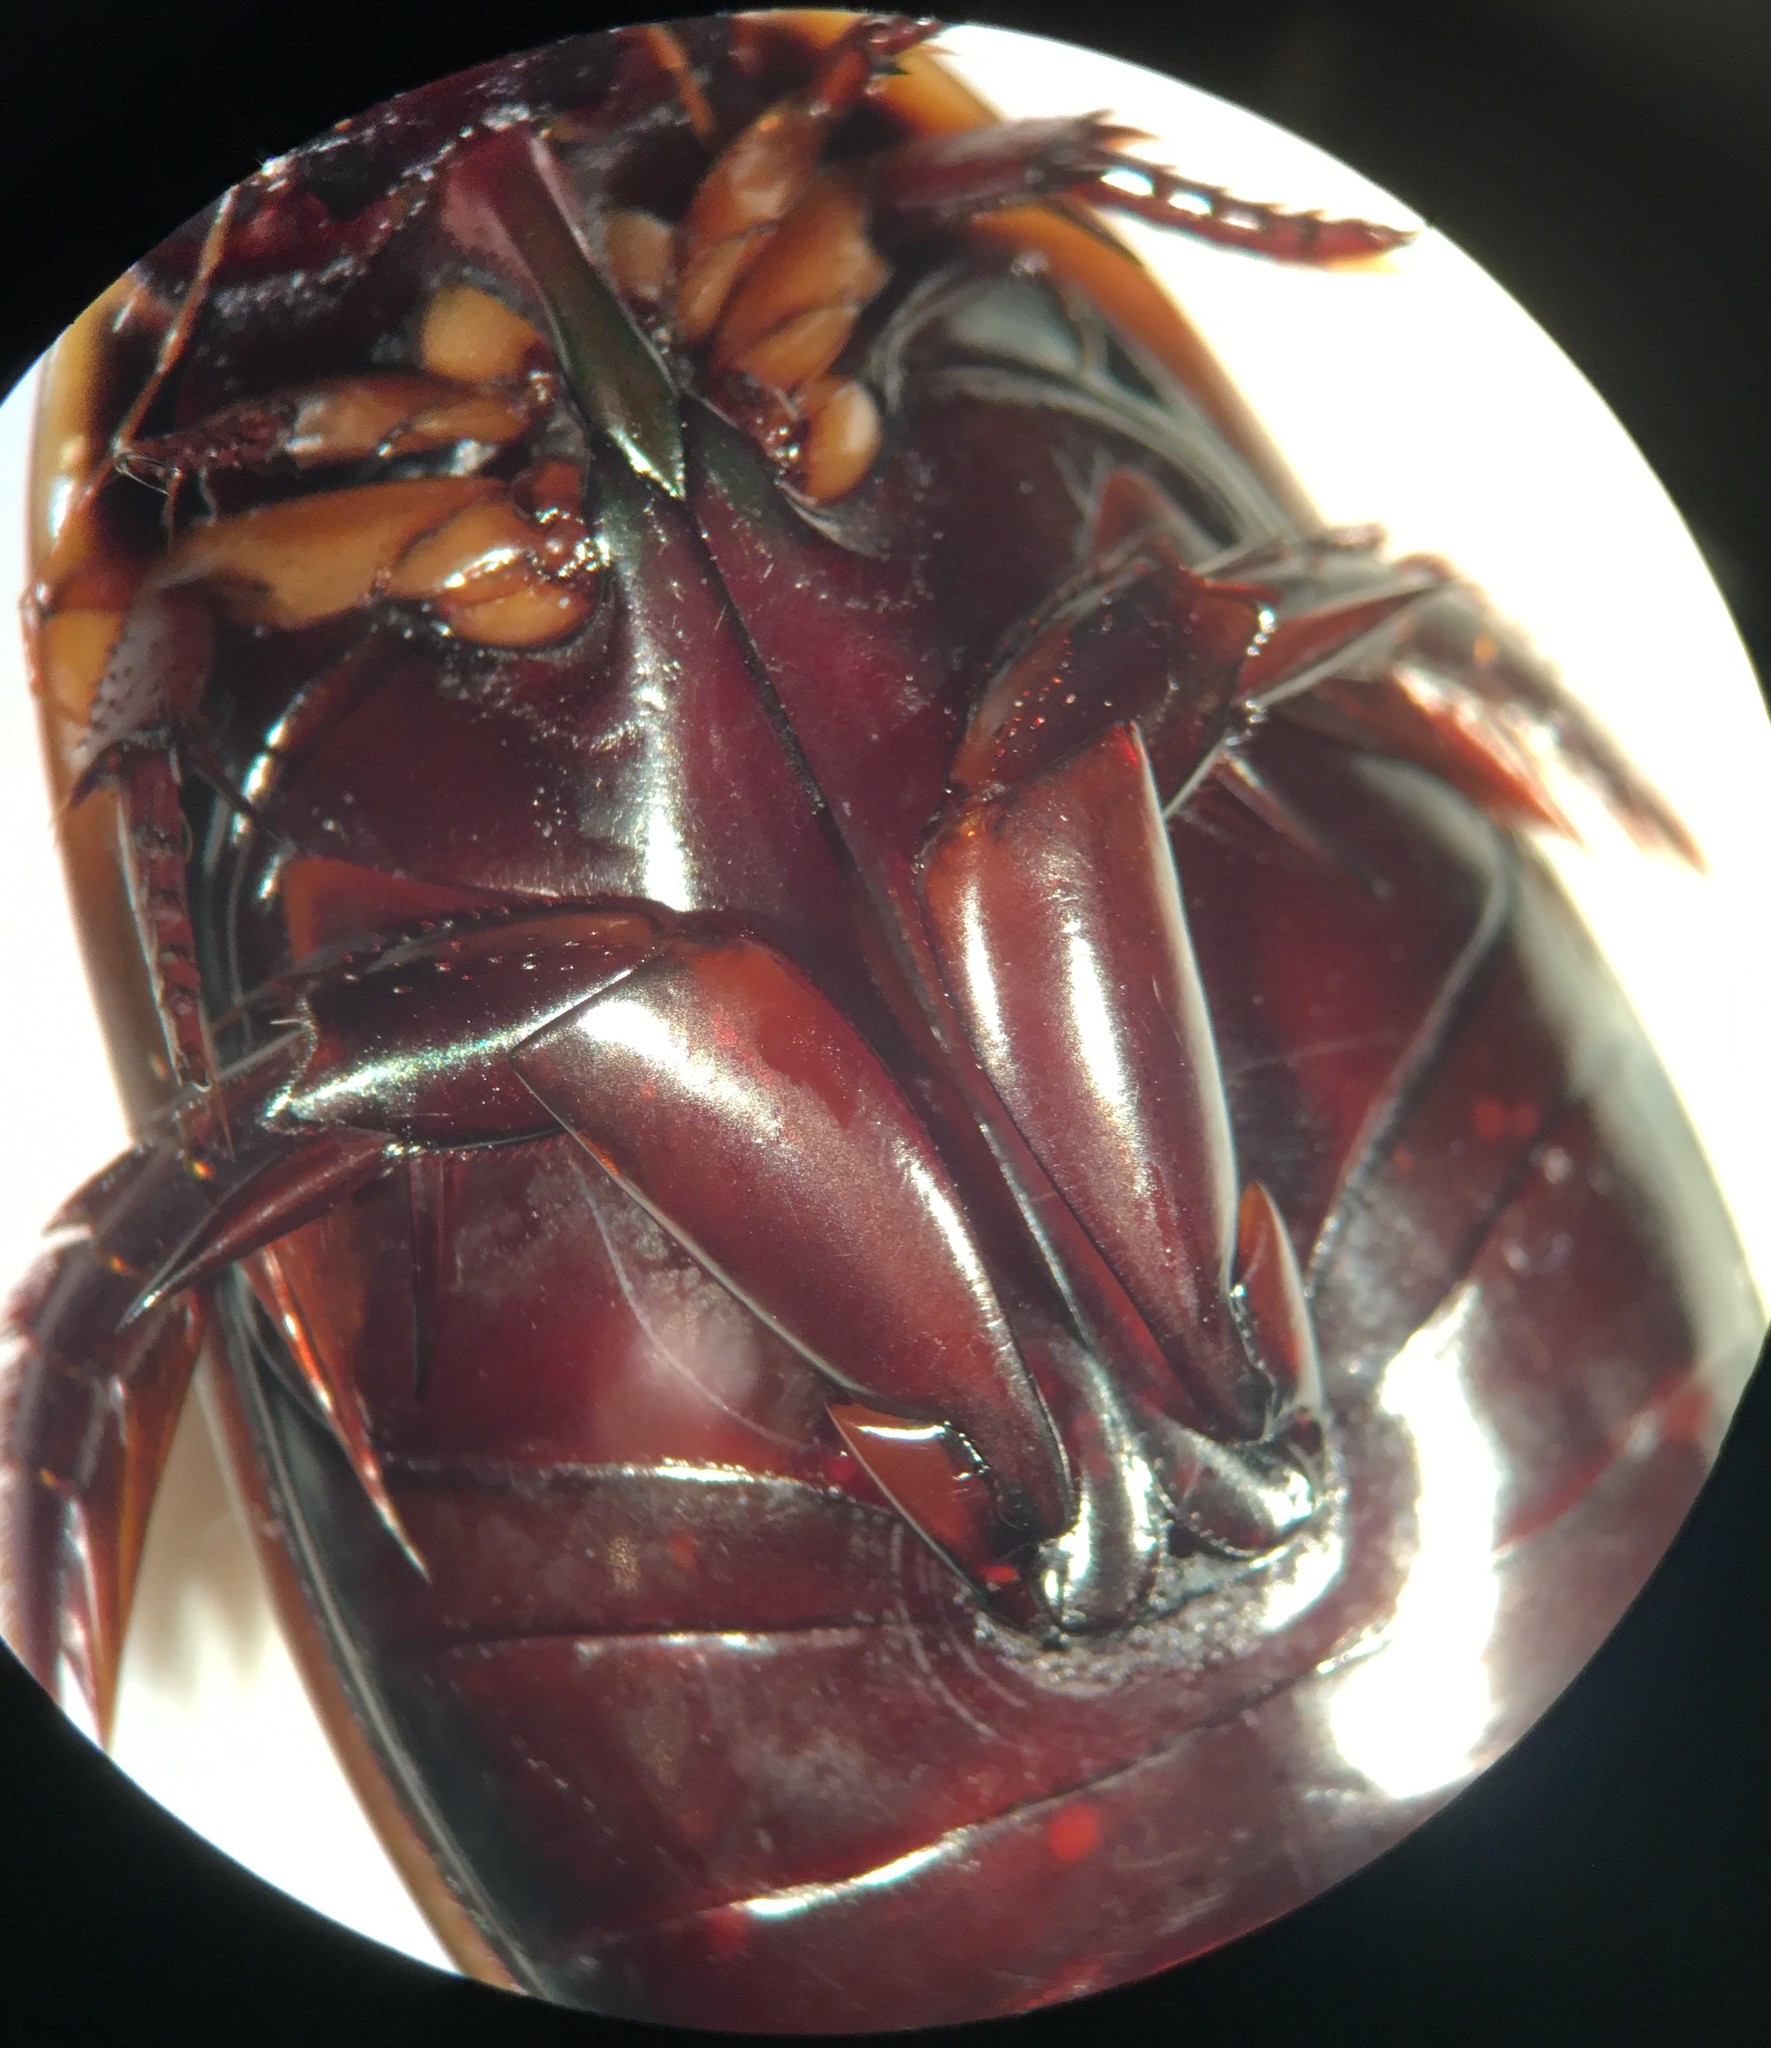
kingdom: Animalia
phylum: Arthropoda
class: Insecta
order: Coleoptera
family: Dytiscidae
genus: Cybister
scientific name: Cybister fimbriolatus
